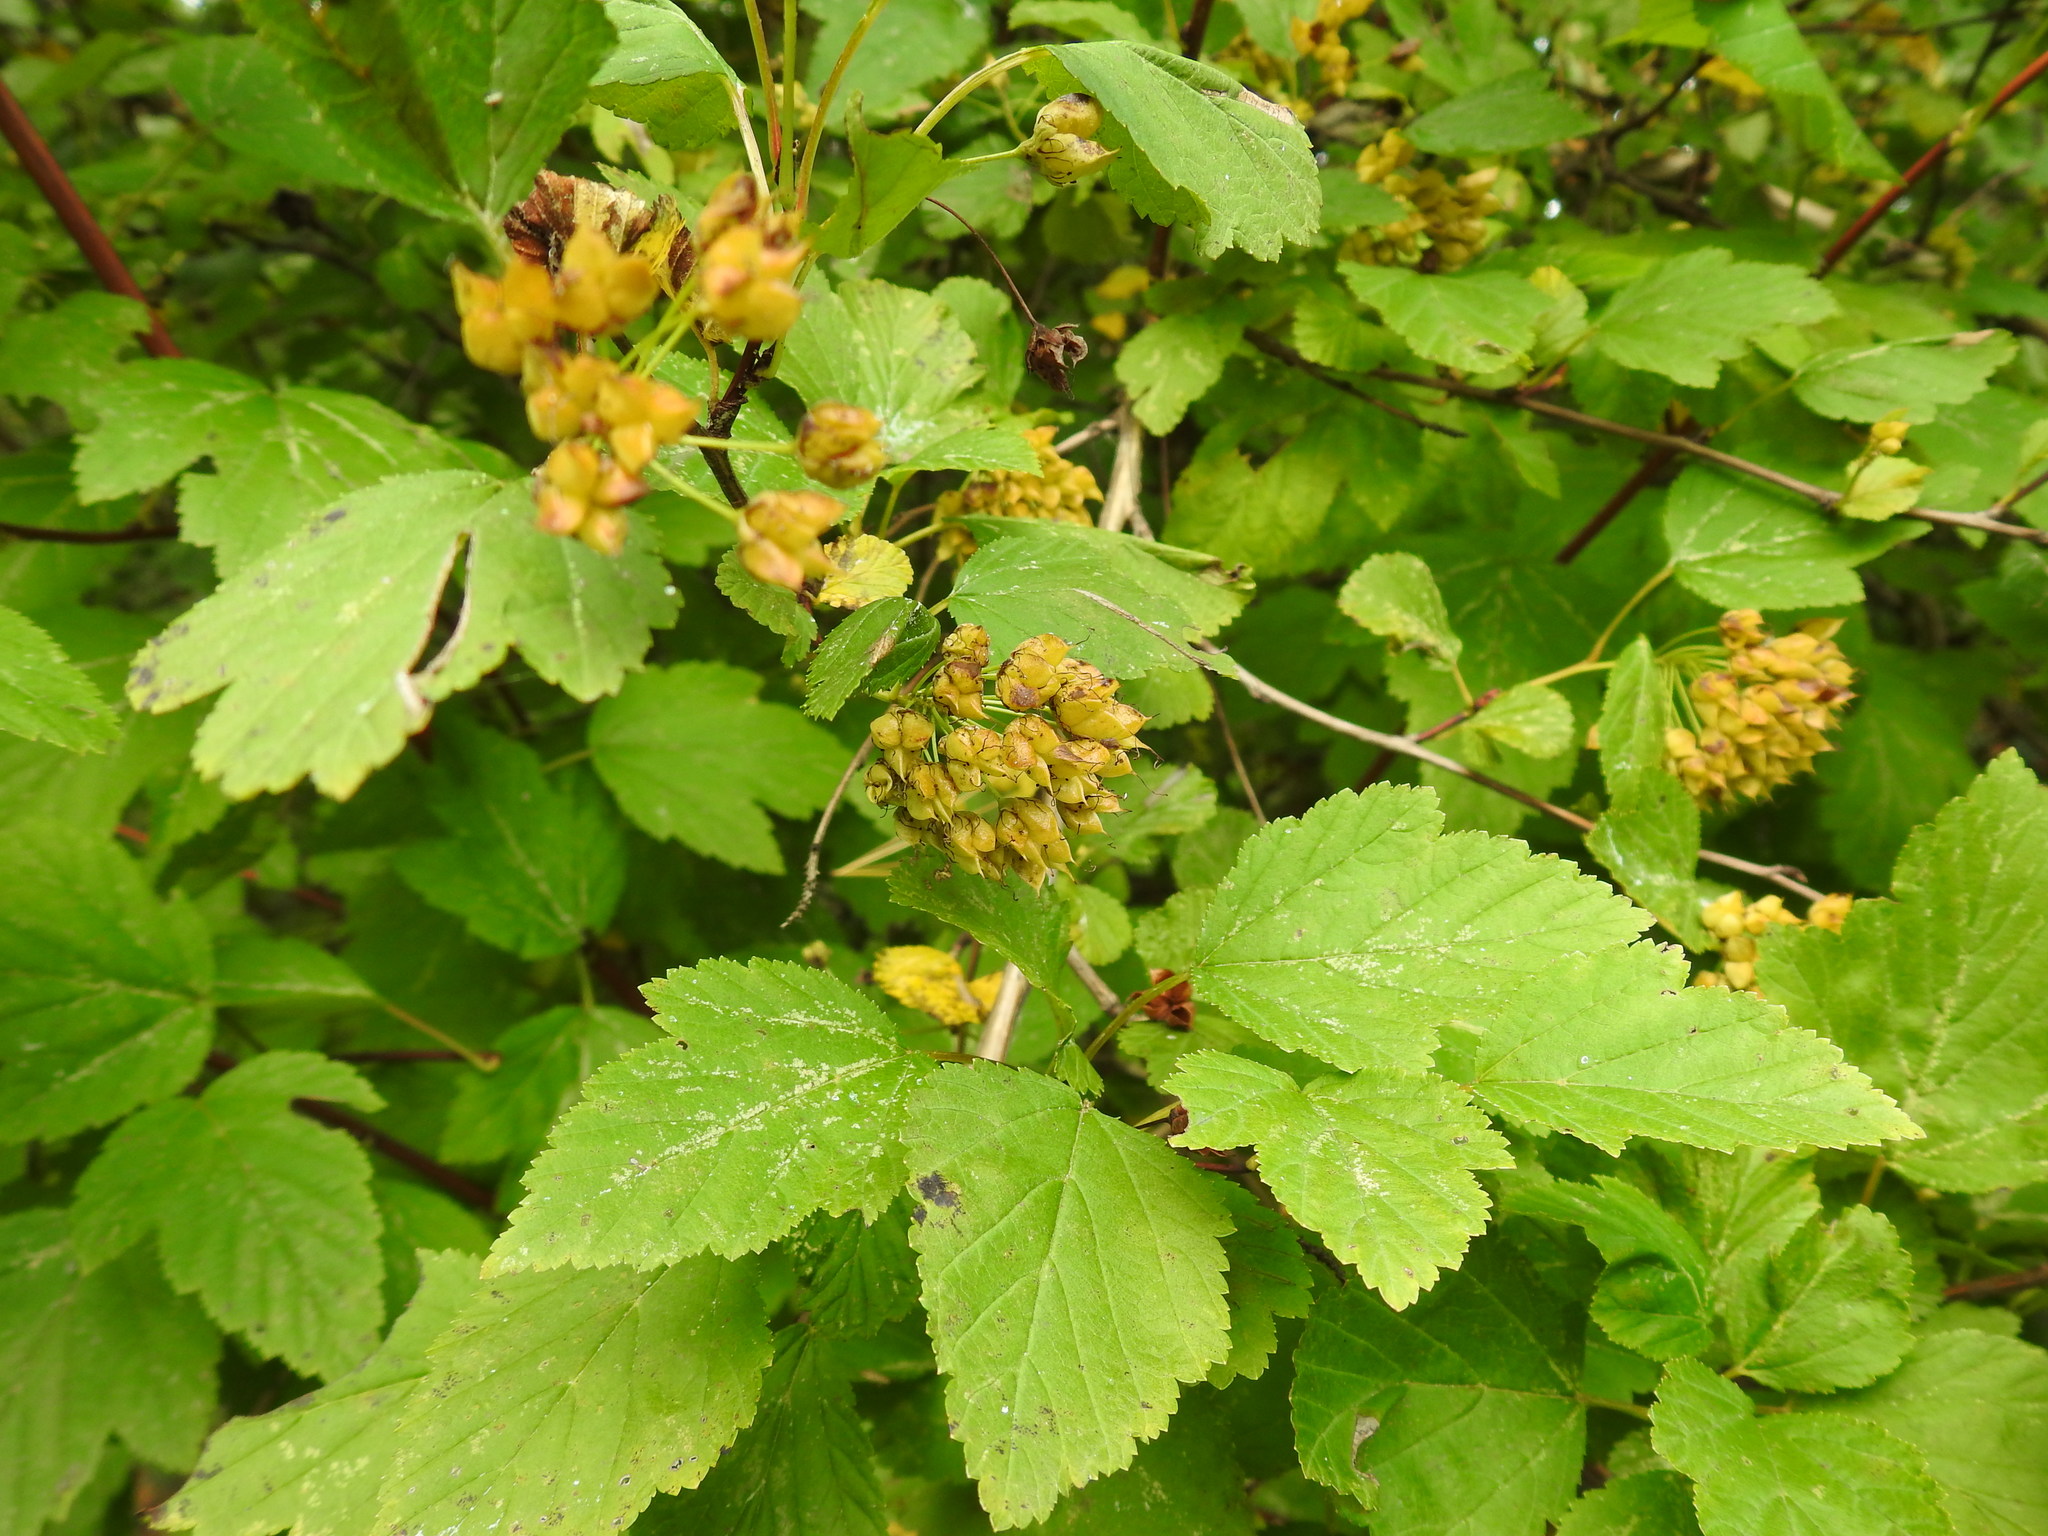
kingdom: Plantae
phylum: Tracheophyta
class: Magnoliopsida
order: Rosales
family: Rosaceae
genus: Physocarpus
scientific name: Physocarpus opulifolius
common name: Ninebark
